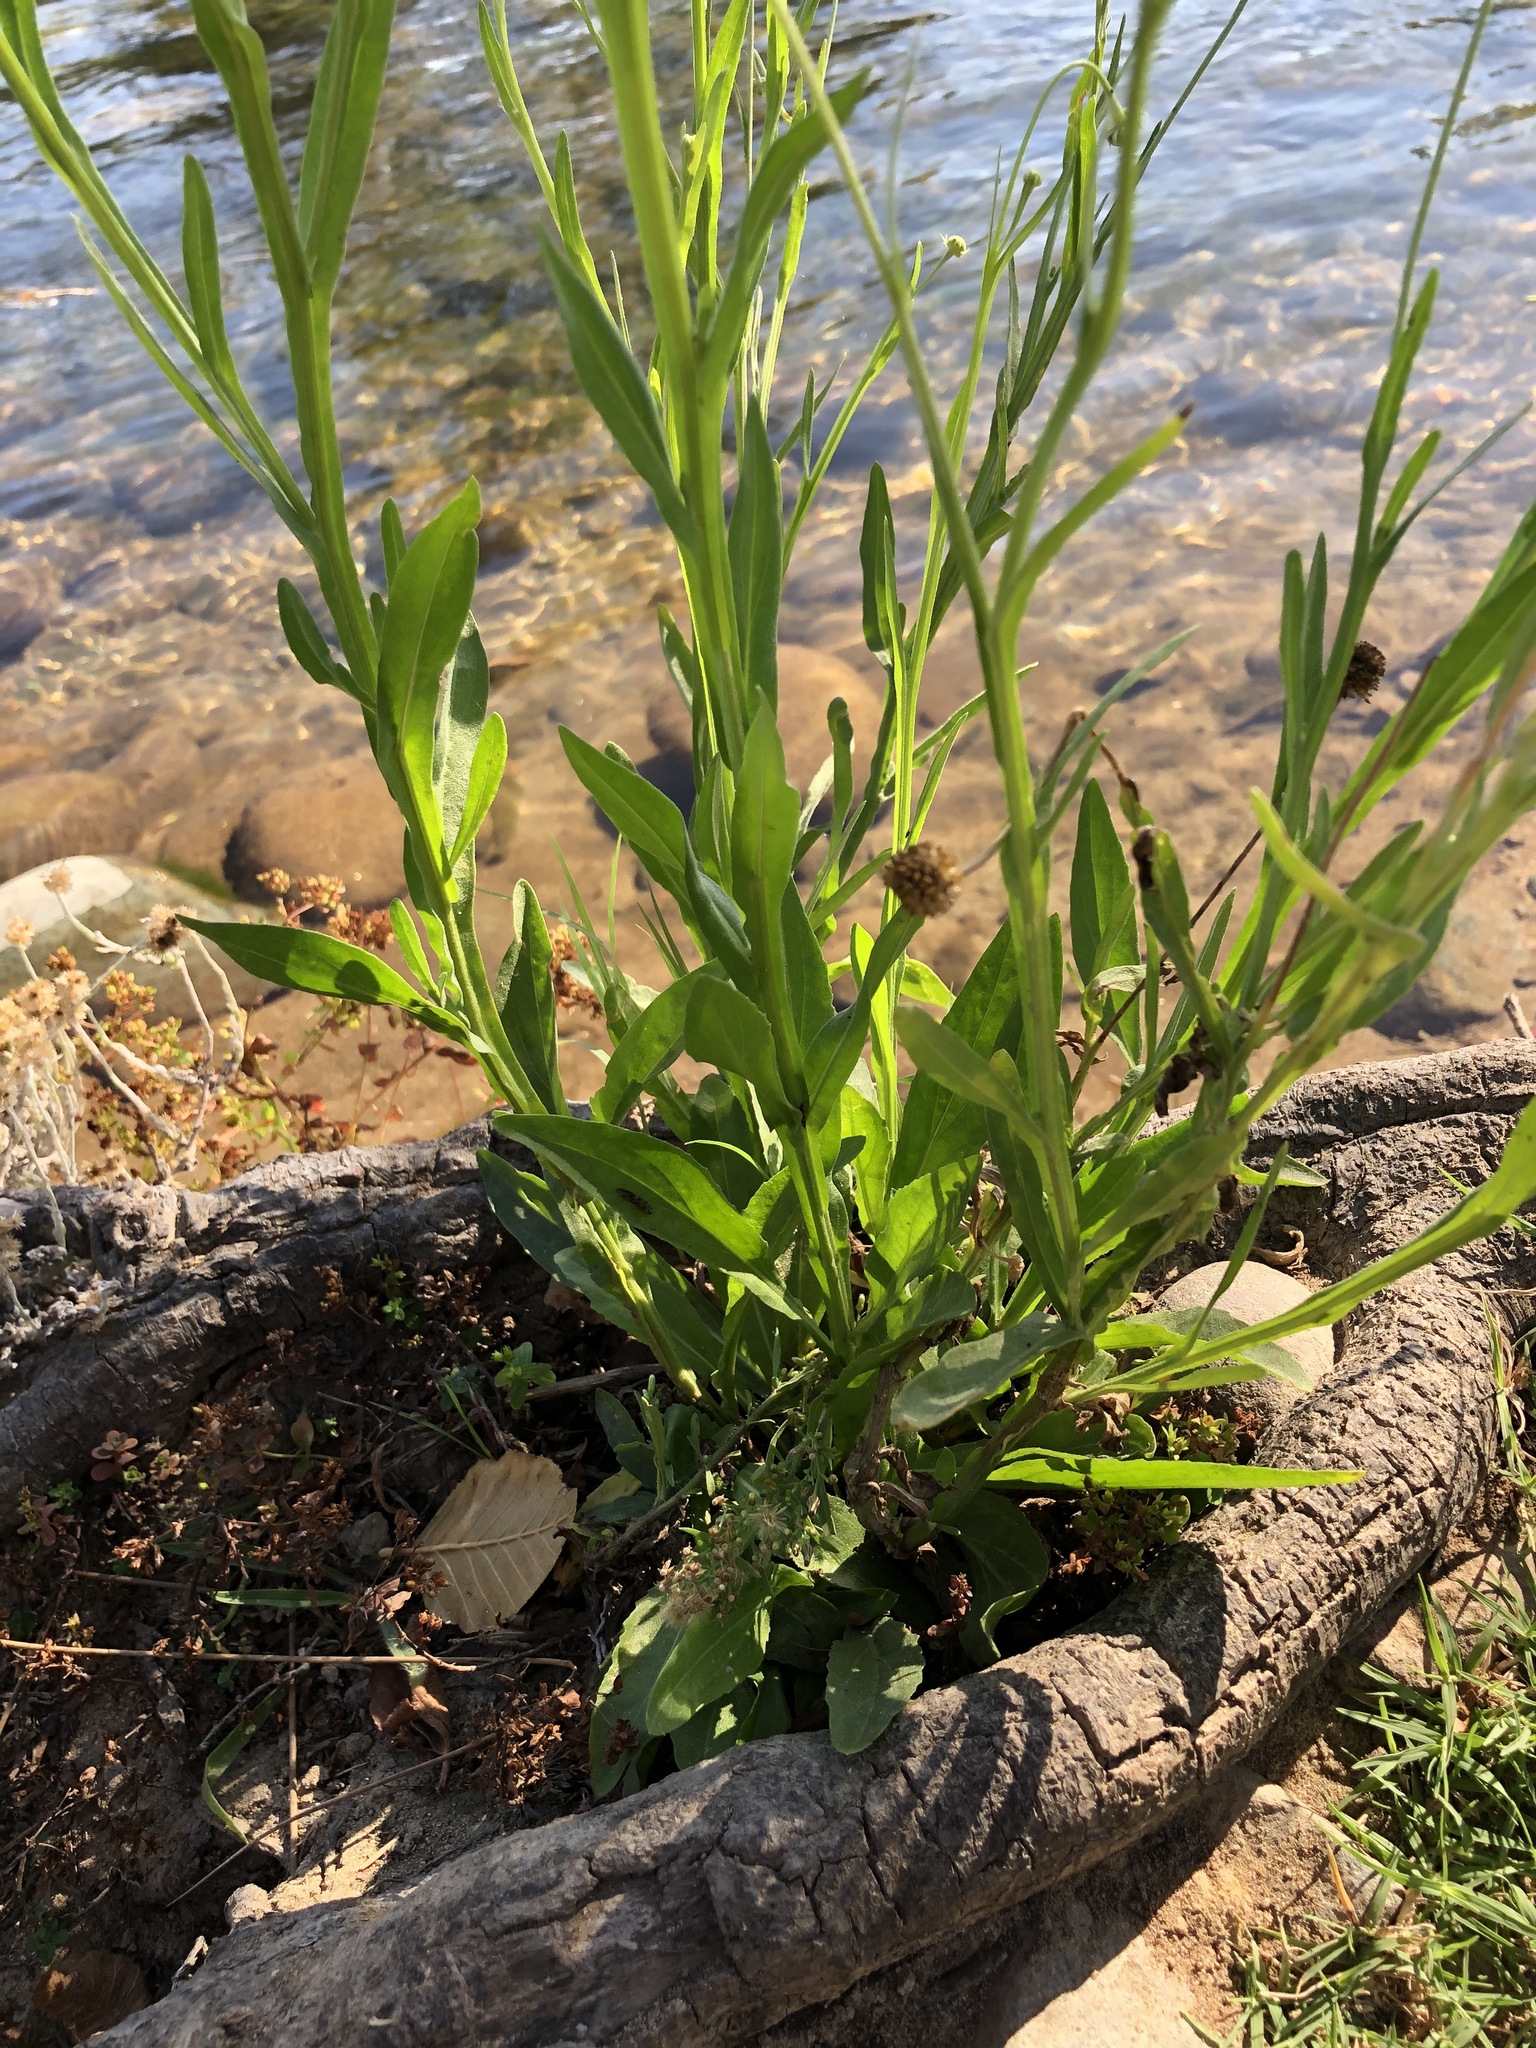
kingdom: Plantae
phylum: Tracheophyta
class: Magnoliopsida
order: Asterales
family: Asteraceae
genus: Helenium
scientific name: Helenium puberulum
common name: Sneezewort
